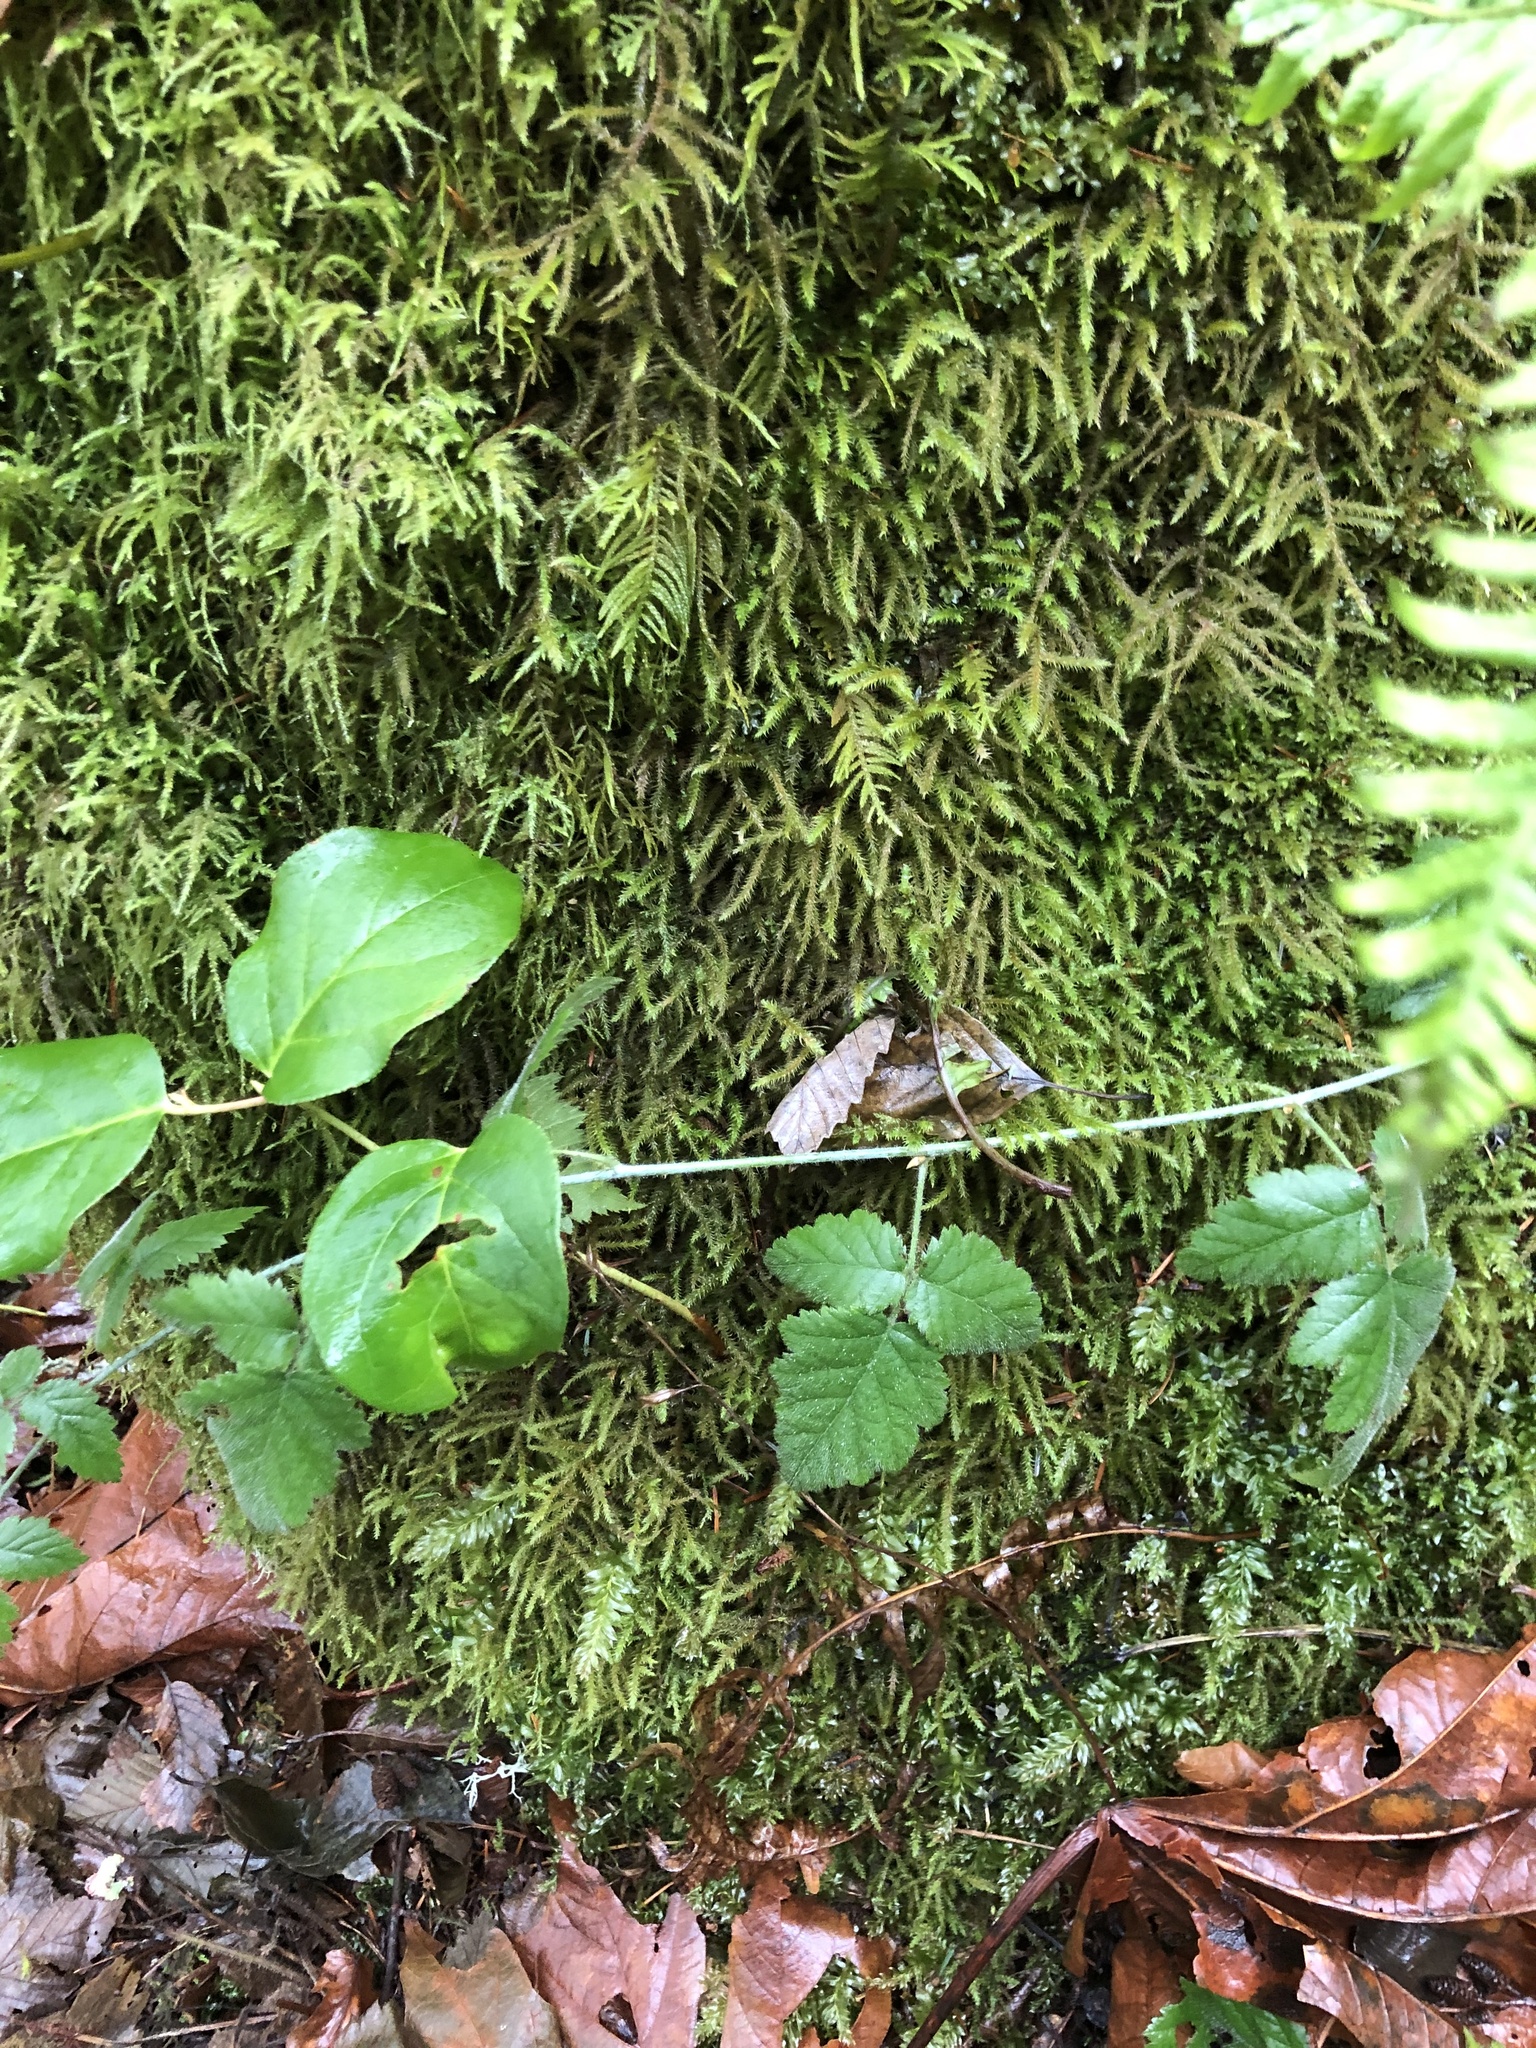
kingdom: Plantae
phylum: Tracheophyta
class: Magnoliopsida
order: Rosales
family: Rosaceae
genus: Rubus
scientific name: Rubus ursinus
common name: Pacific blackberry
